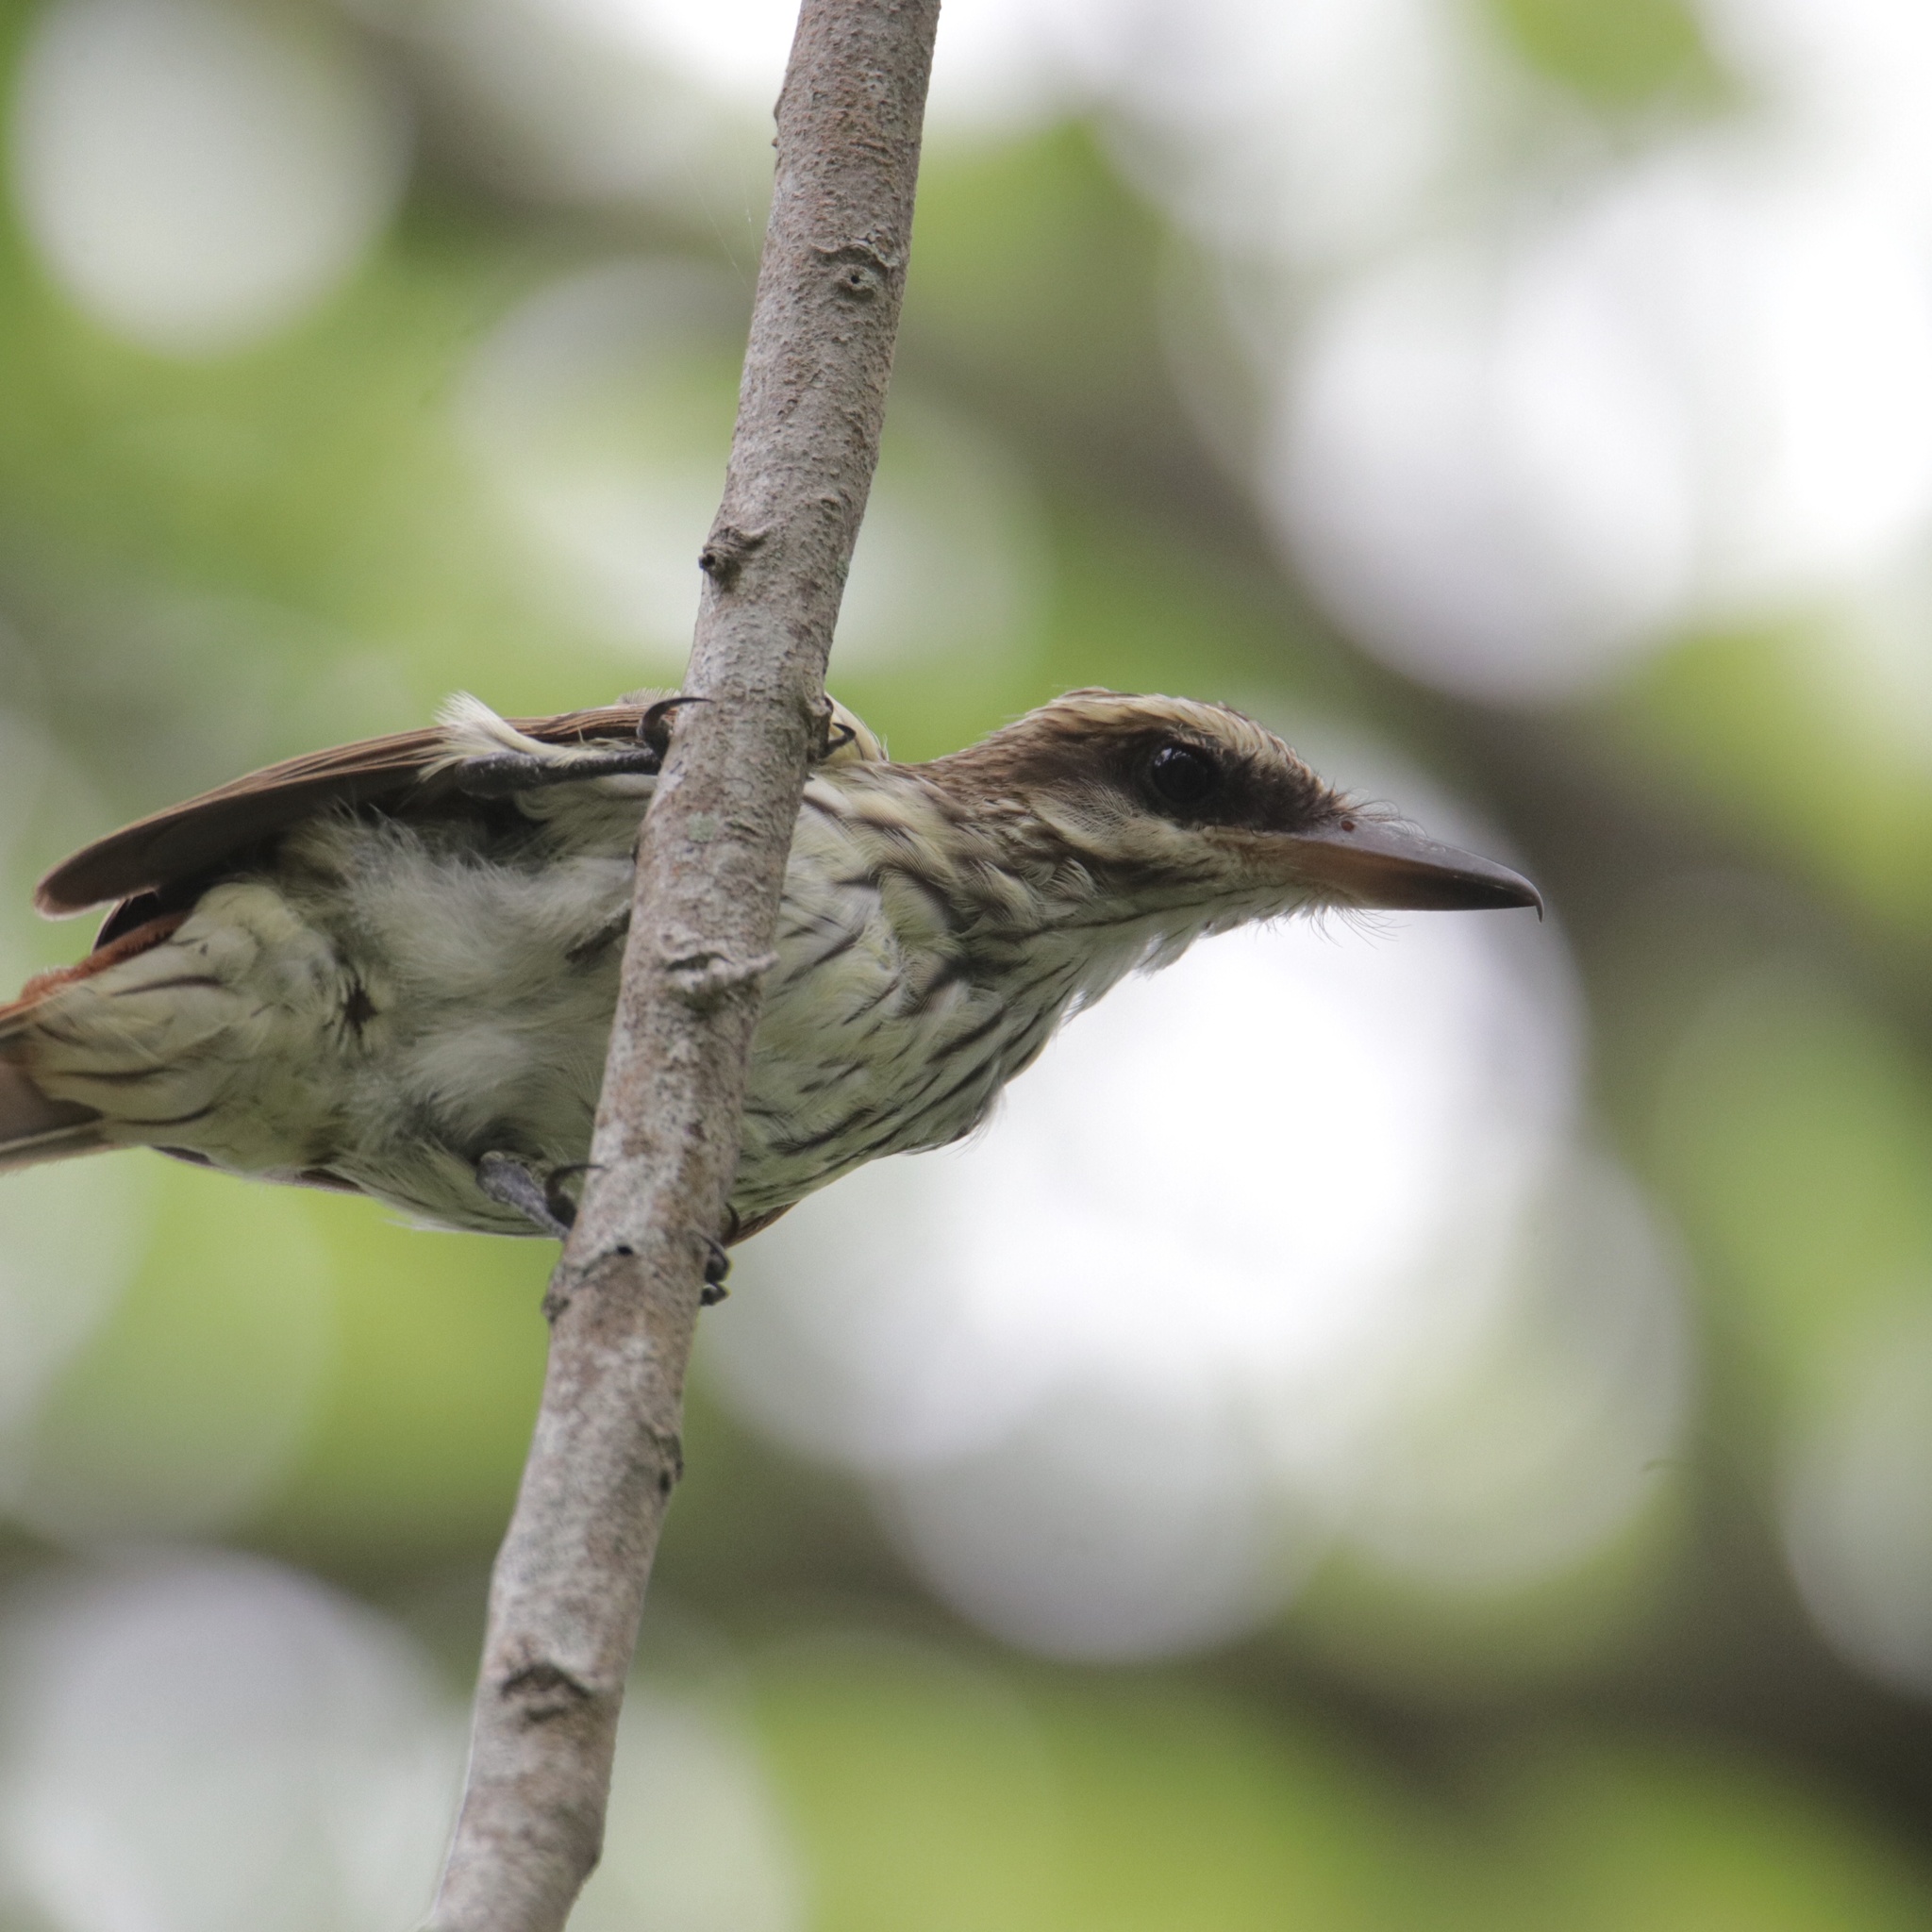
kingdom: Animalia
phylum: Chordata
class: Aves
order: Passeriformes
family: Tyrannidae
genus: Myiodynastes
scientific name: Myiodynastes maculatus
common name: Streaked flycatcher
